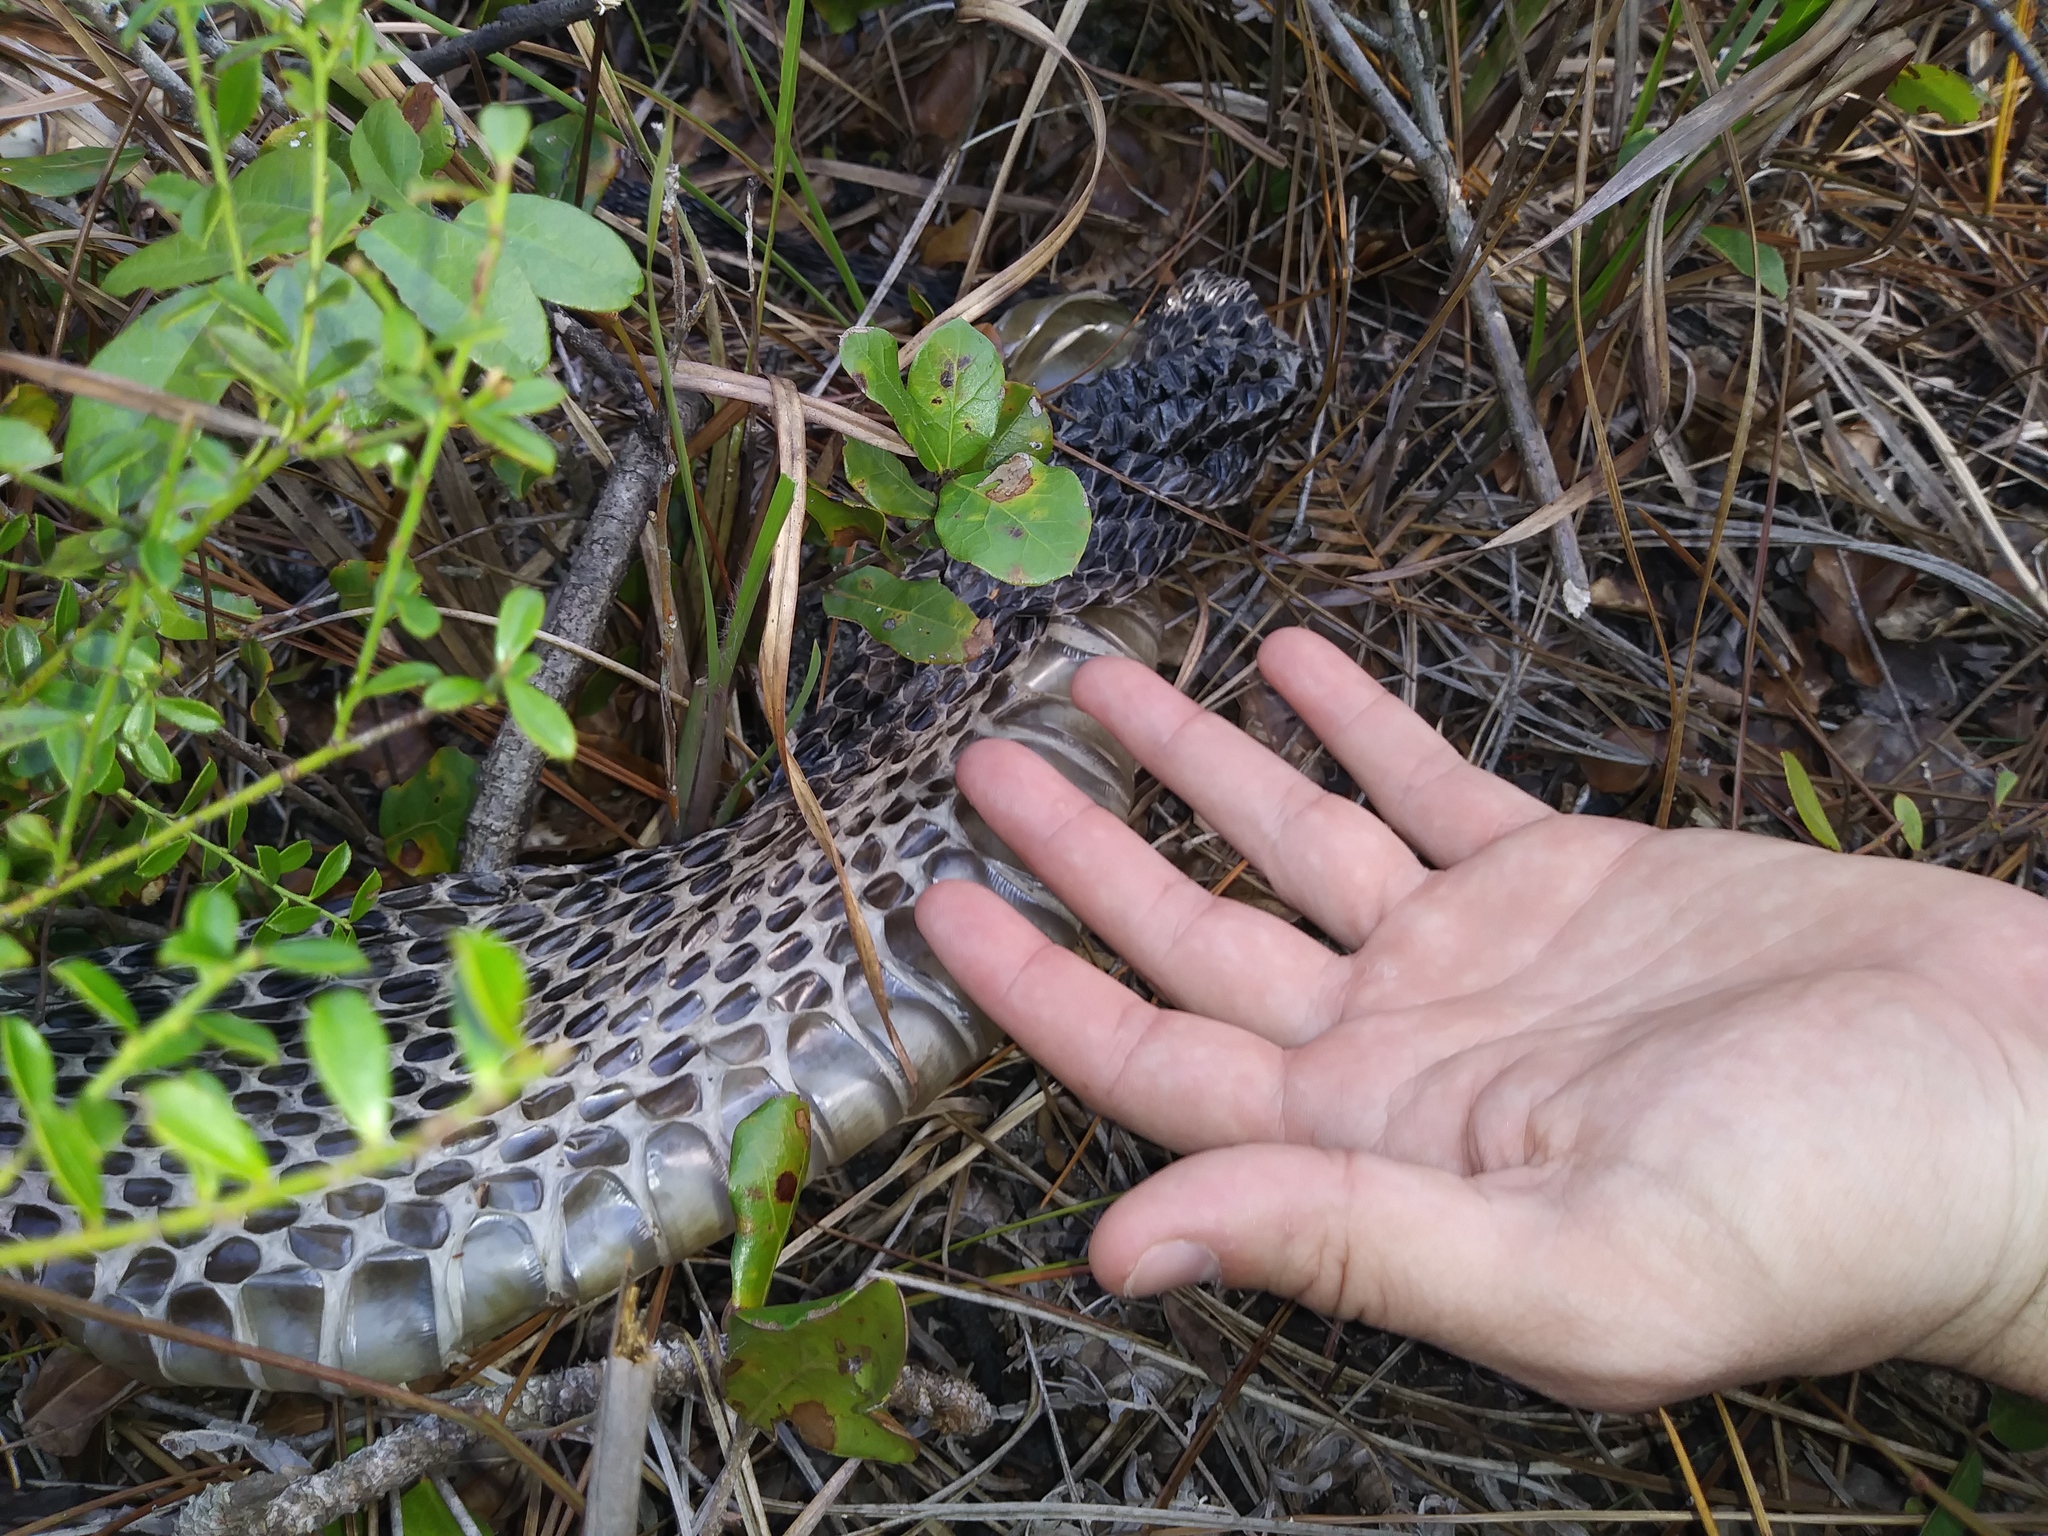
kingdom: Animalia
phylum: Chordata
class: Squamata
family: Viperidae
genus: Crotalus
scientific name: Crotalus adamanteus
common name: Eastern diamondback rattlesnake
